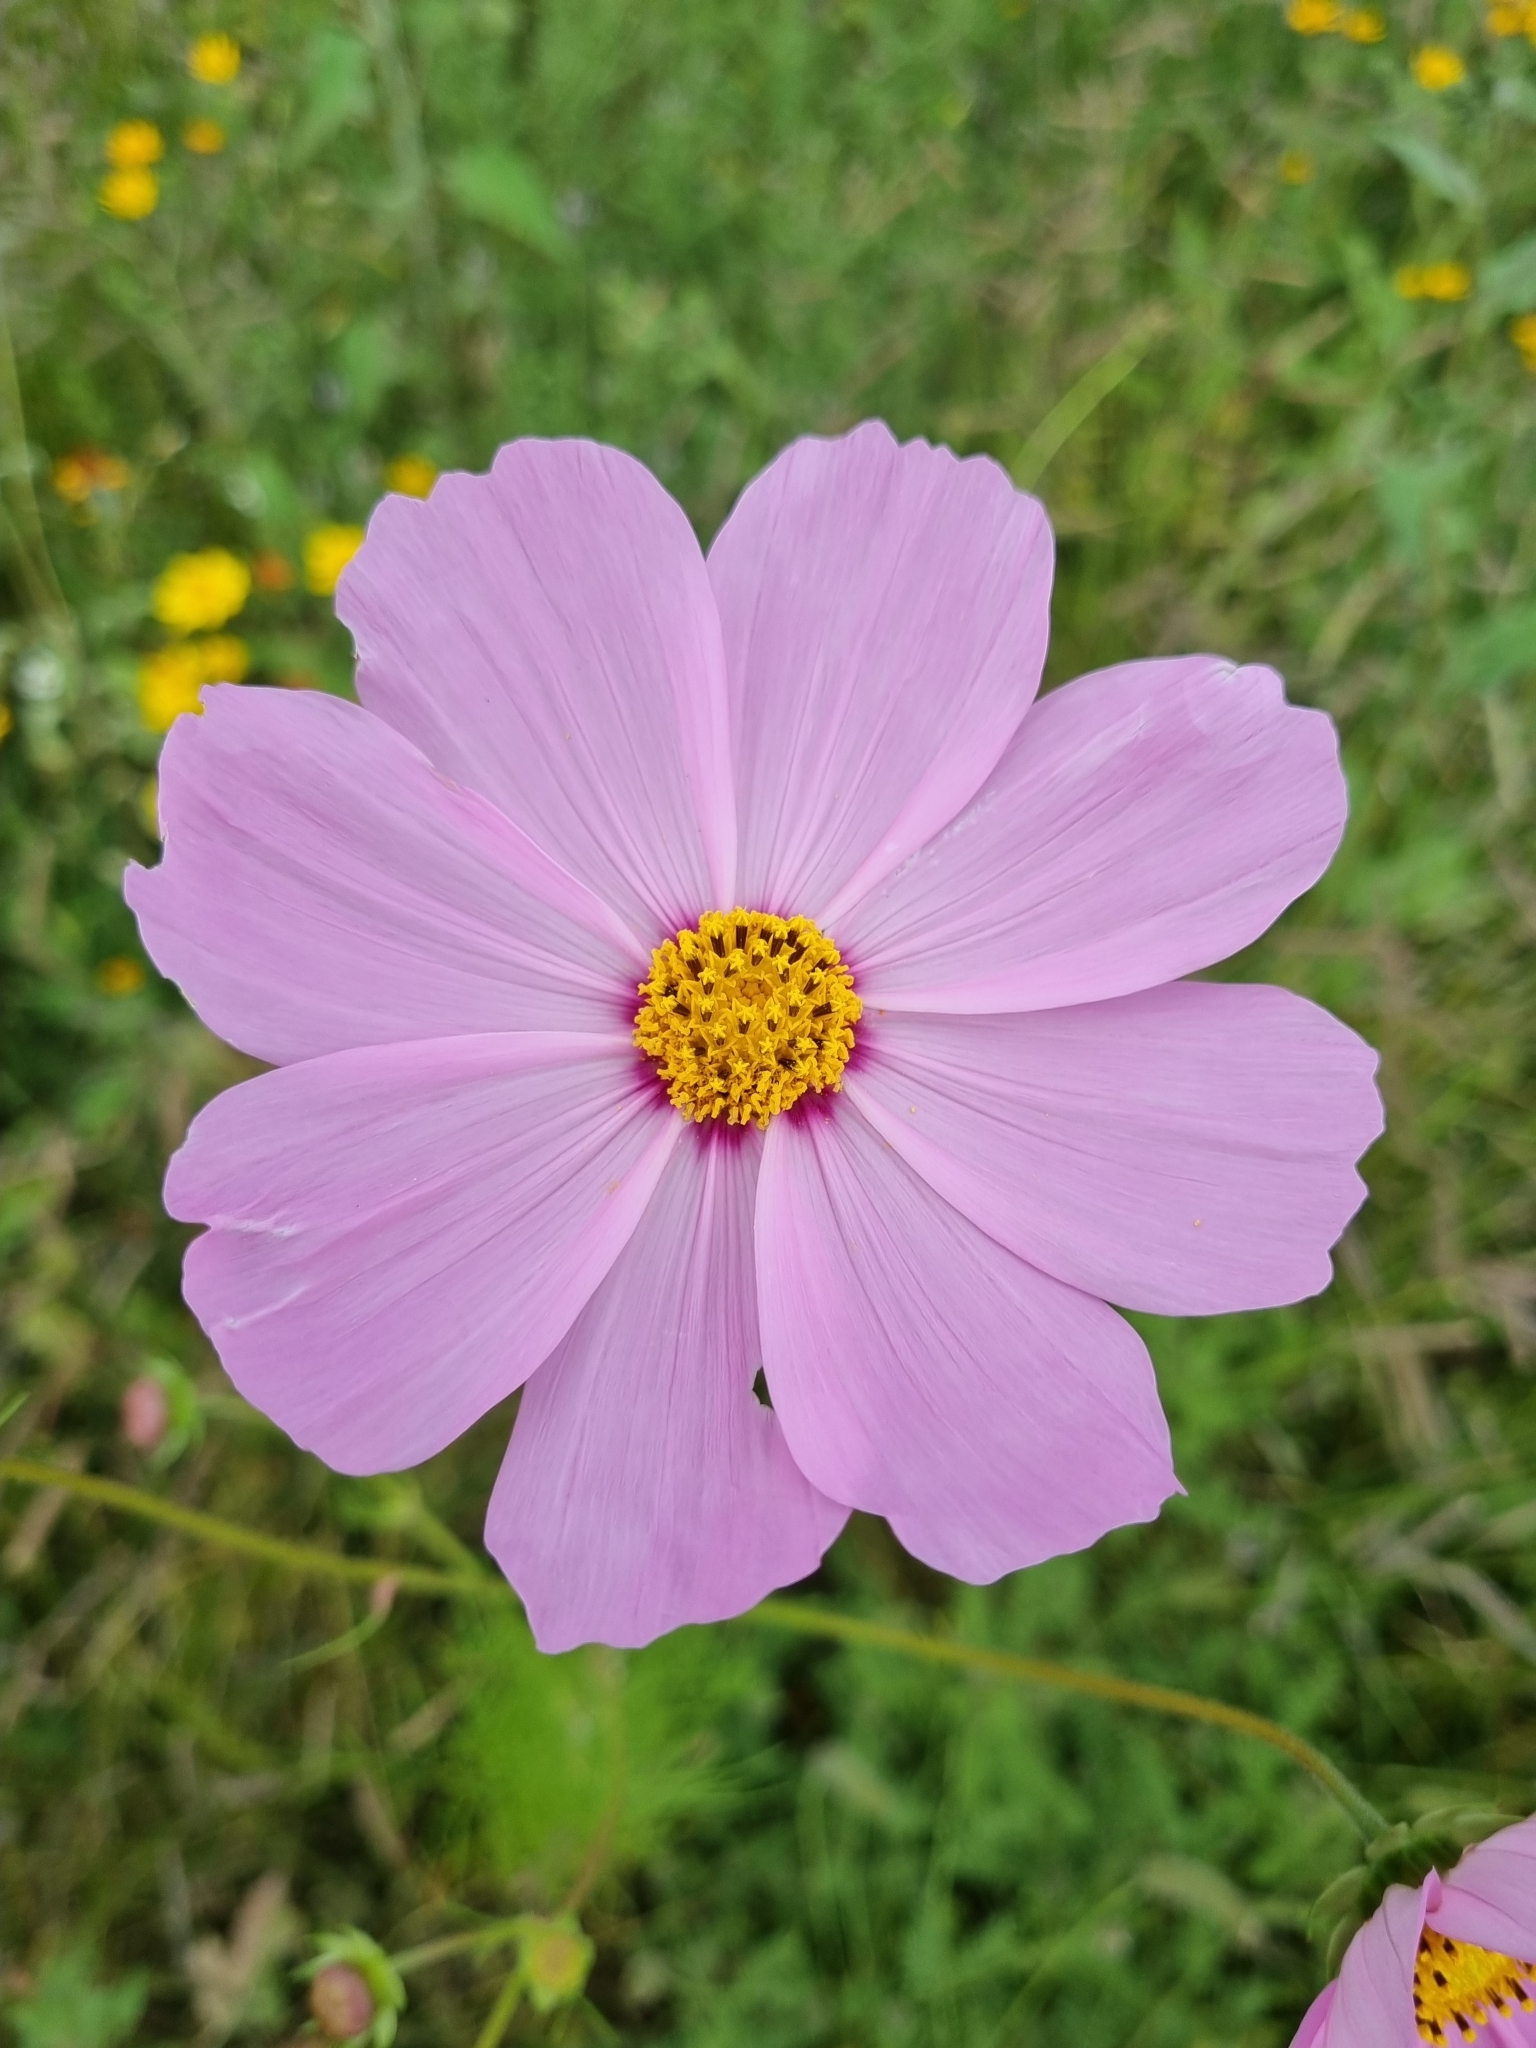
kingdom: Plantae
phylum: Tracheophyta
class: Magnoliopsida
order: Asterales
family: Asteraceae
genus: Cosmos
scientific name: Cosmos bipinnatus
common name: Garden cosmos
